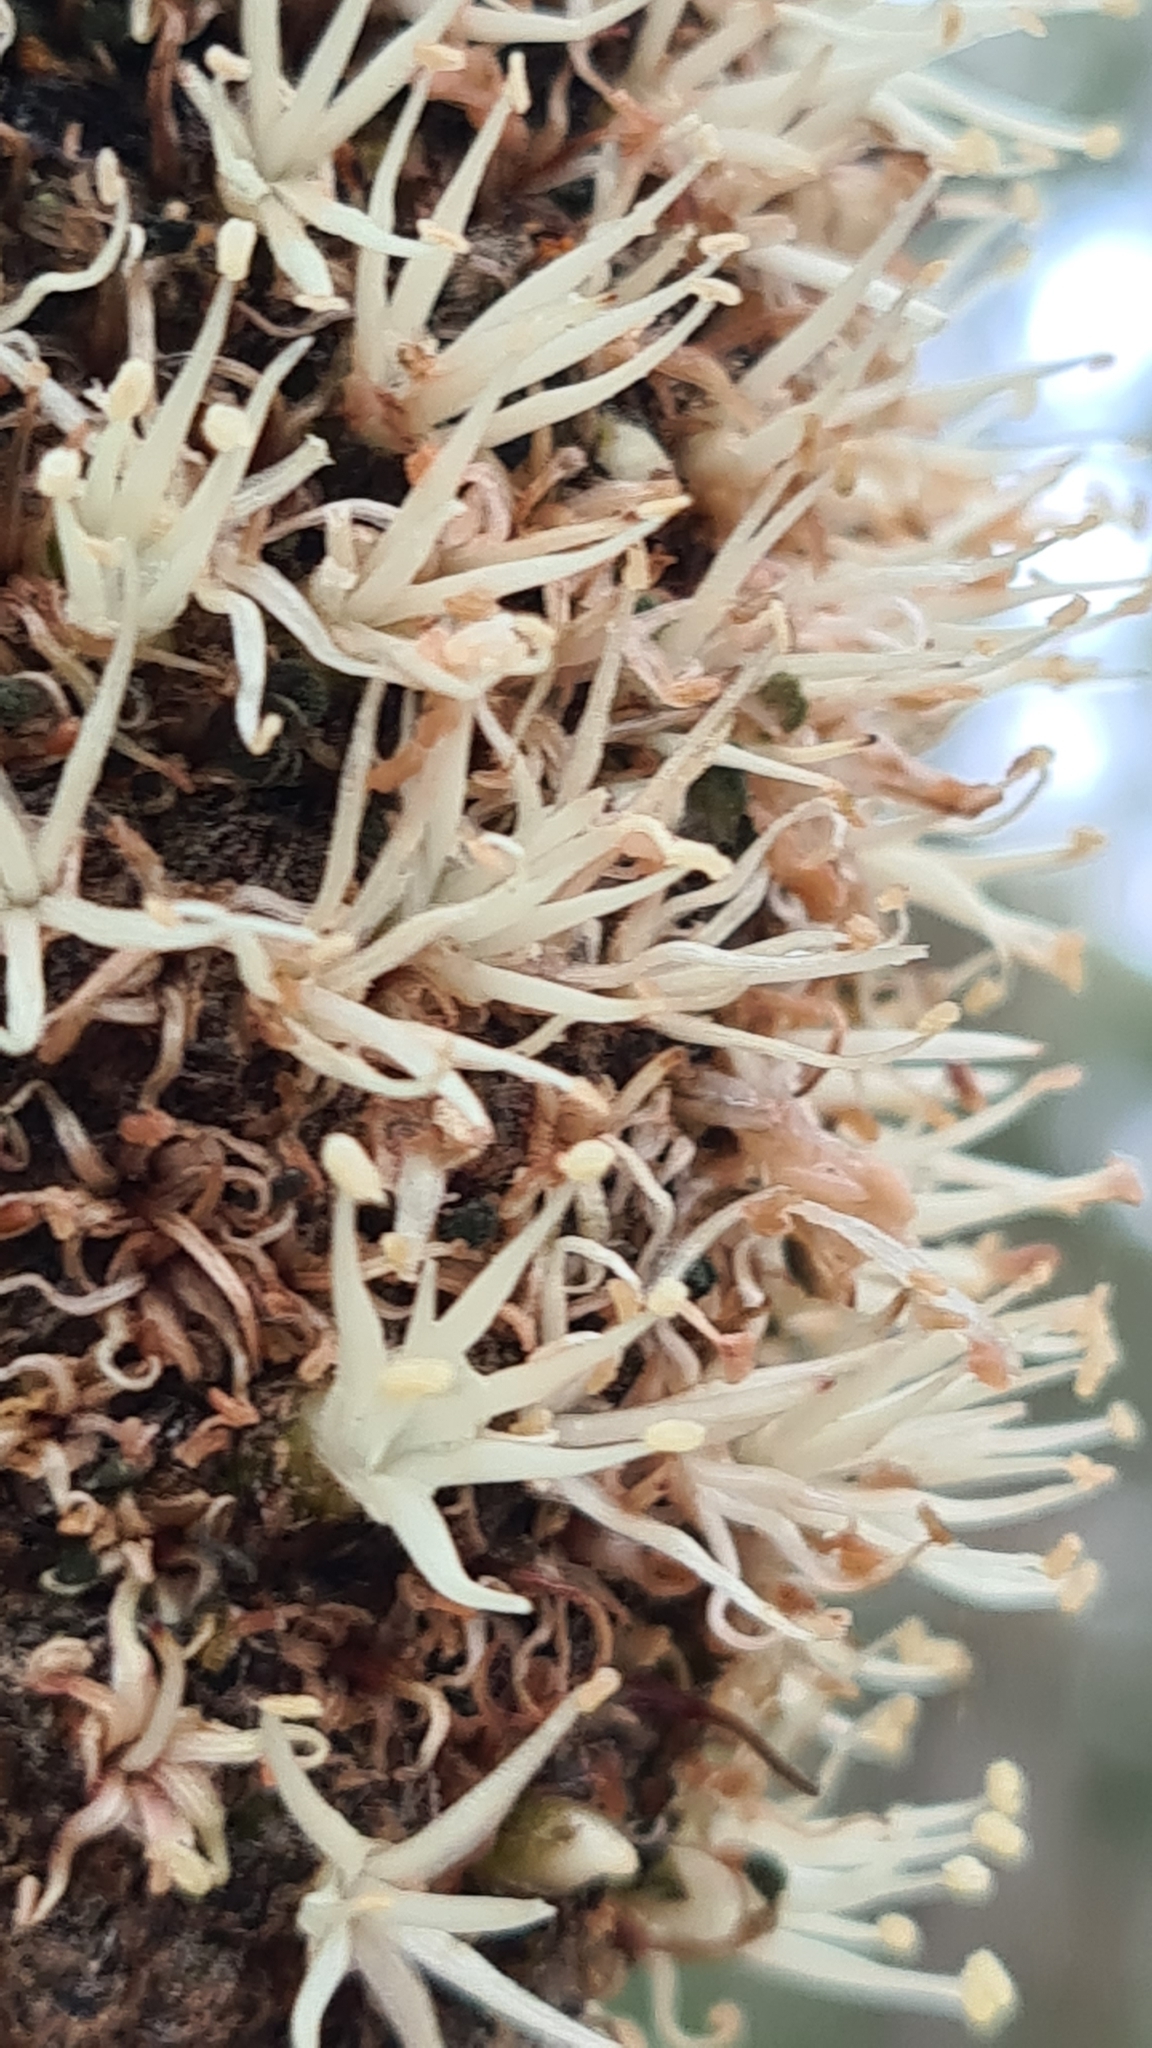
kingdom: Plantae
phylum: Tracheophyta
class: Liliopsida
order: Asparagales
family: Asphodelaceae
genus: Xanthorrhoea
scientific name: Xanthorrhoea
